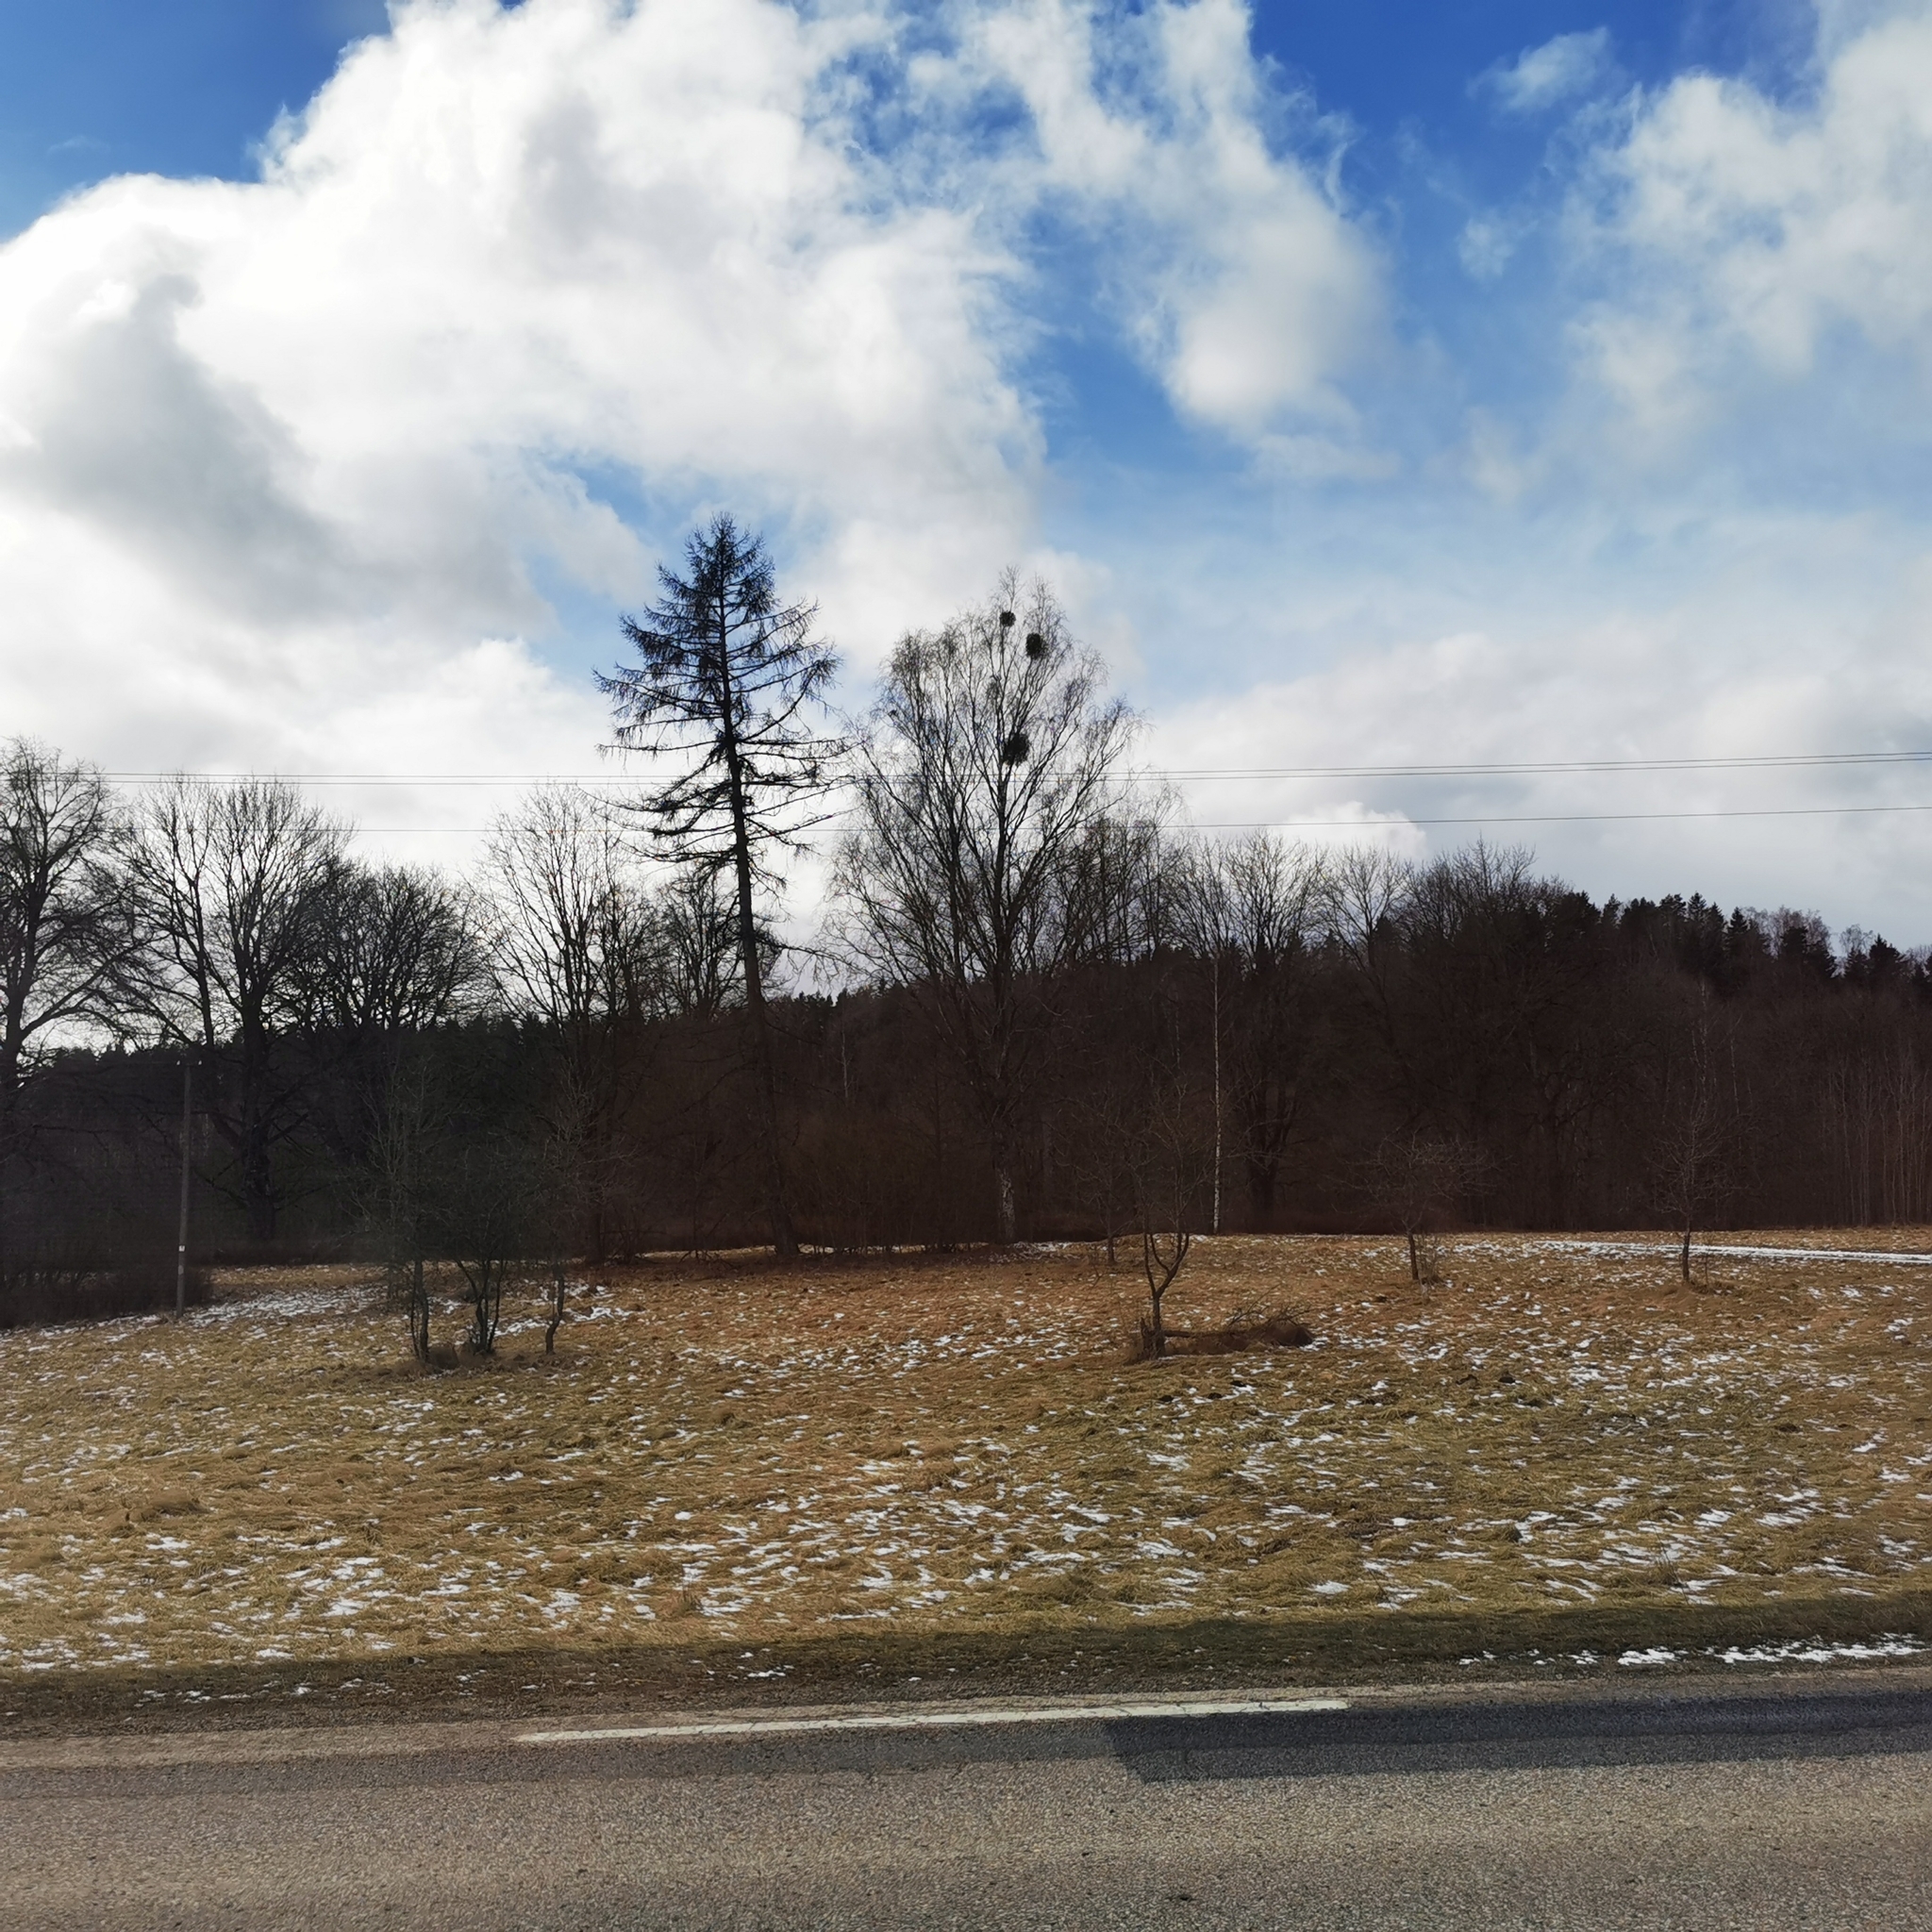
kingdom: Plantae
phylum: Tracheophyta
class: Magnoliopsida
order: Santalales
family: Viscaceae
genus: Viscum
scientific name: Viscum album
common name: Mistletoe
